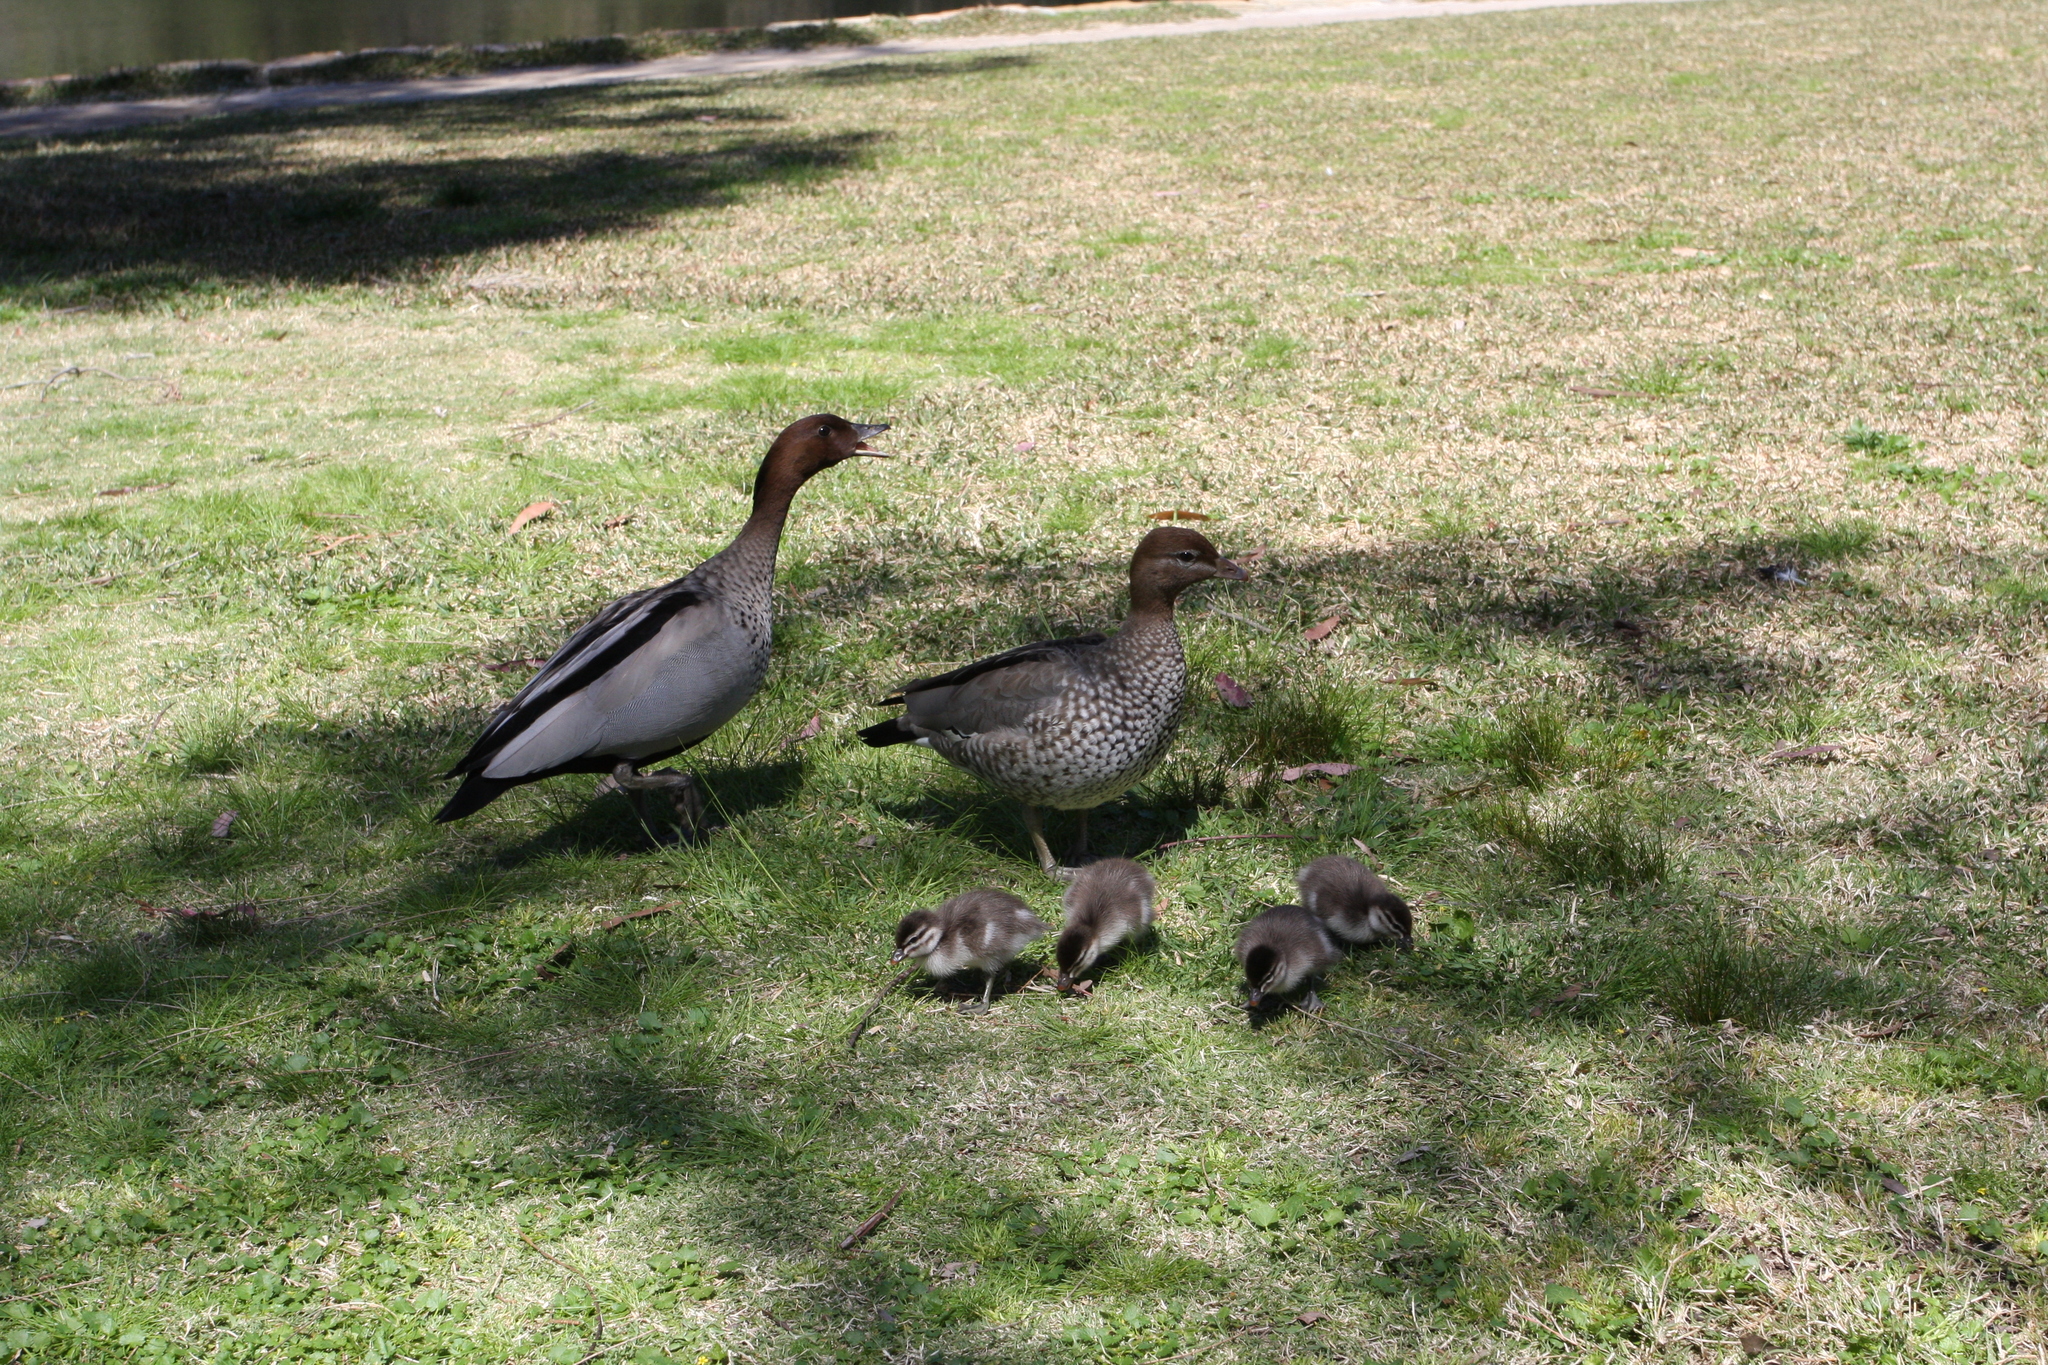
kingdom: Animalia
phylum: Chordata
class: Aves
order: Anseriformes
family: Anatidae
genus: Chenonetta
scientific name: Chenonetta jubata
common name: Maned duck
